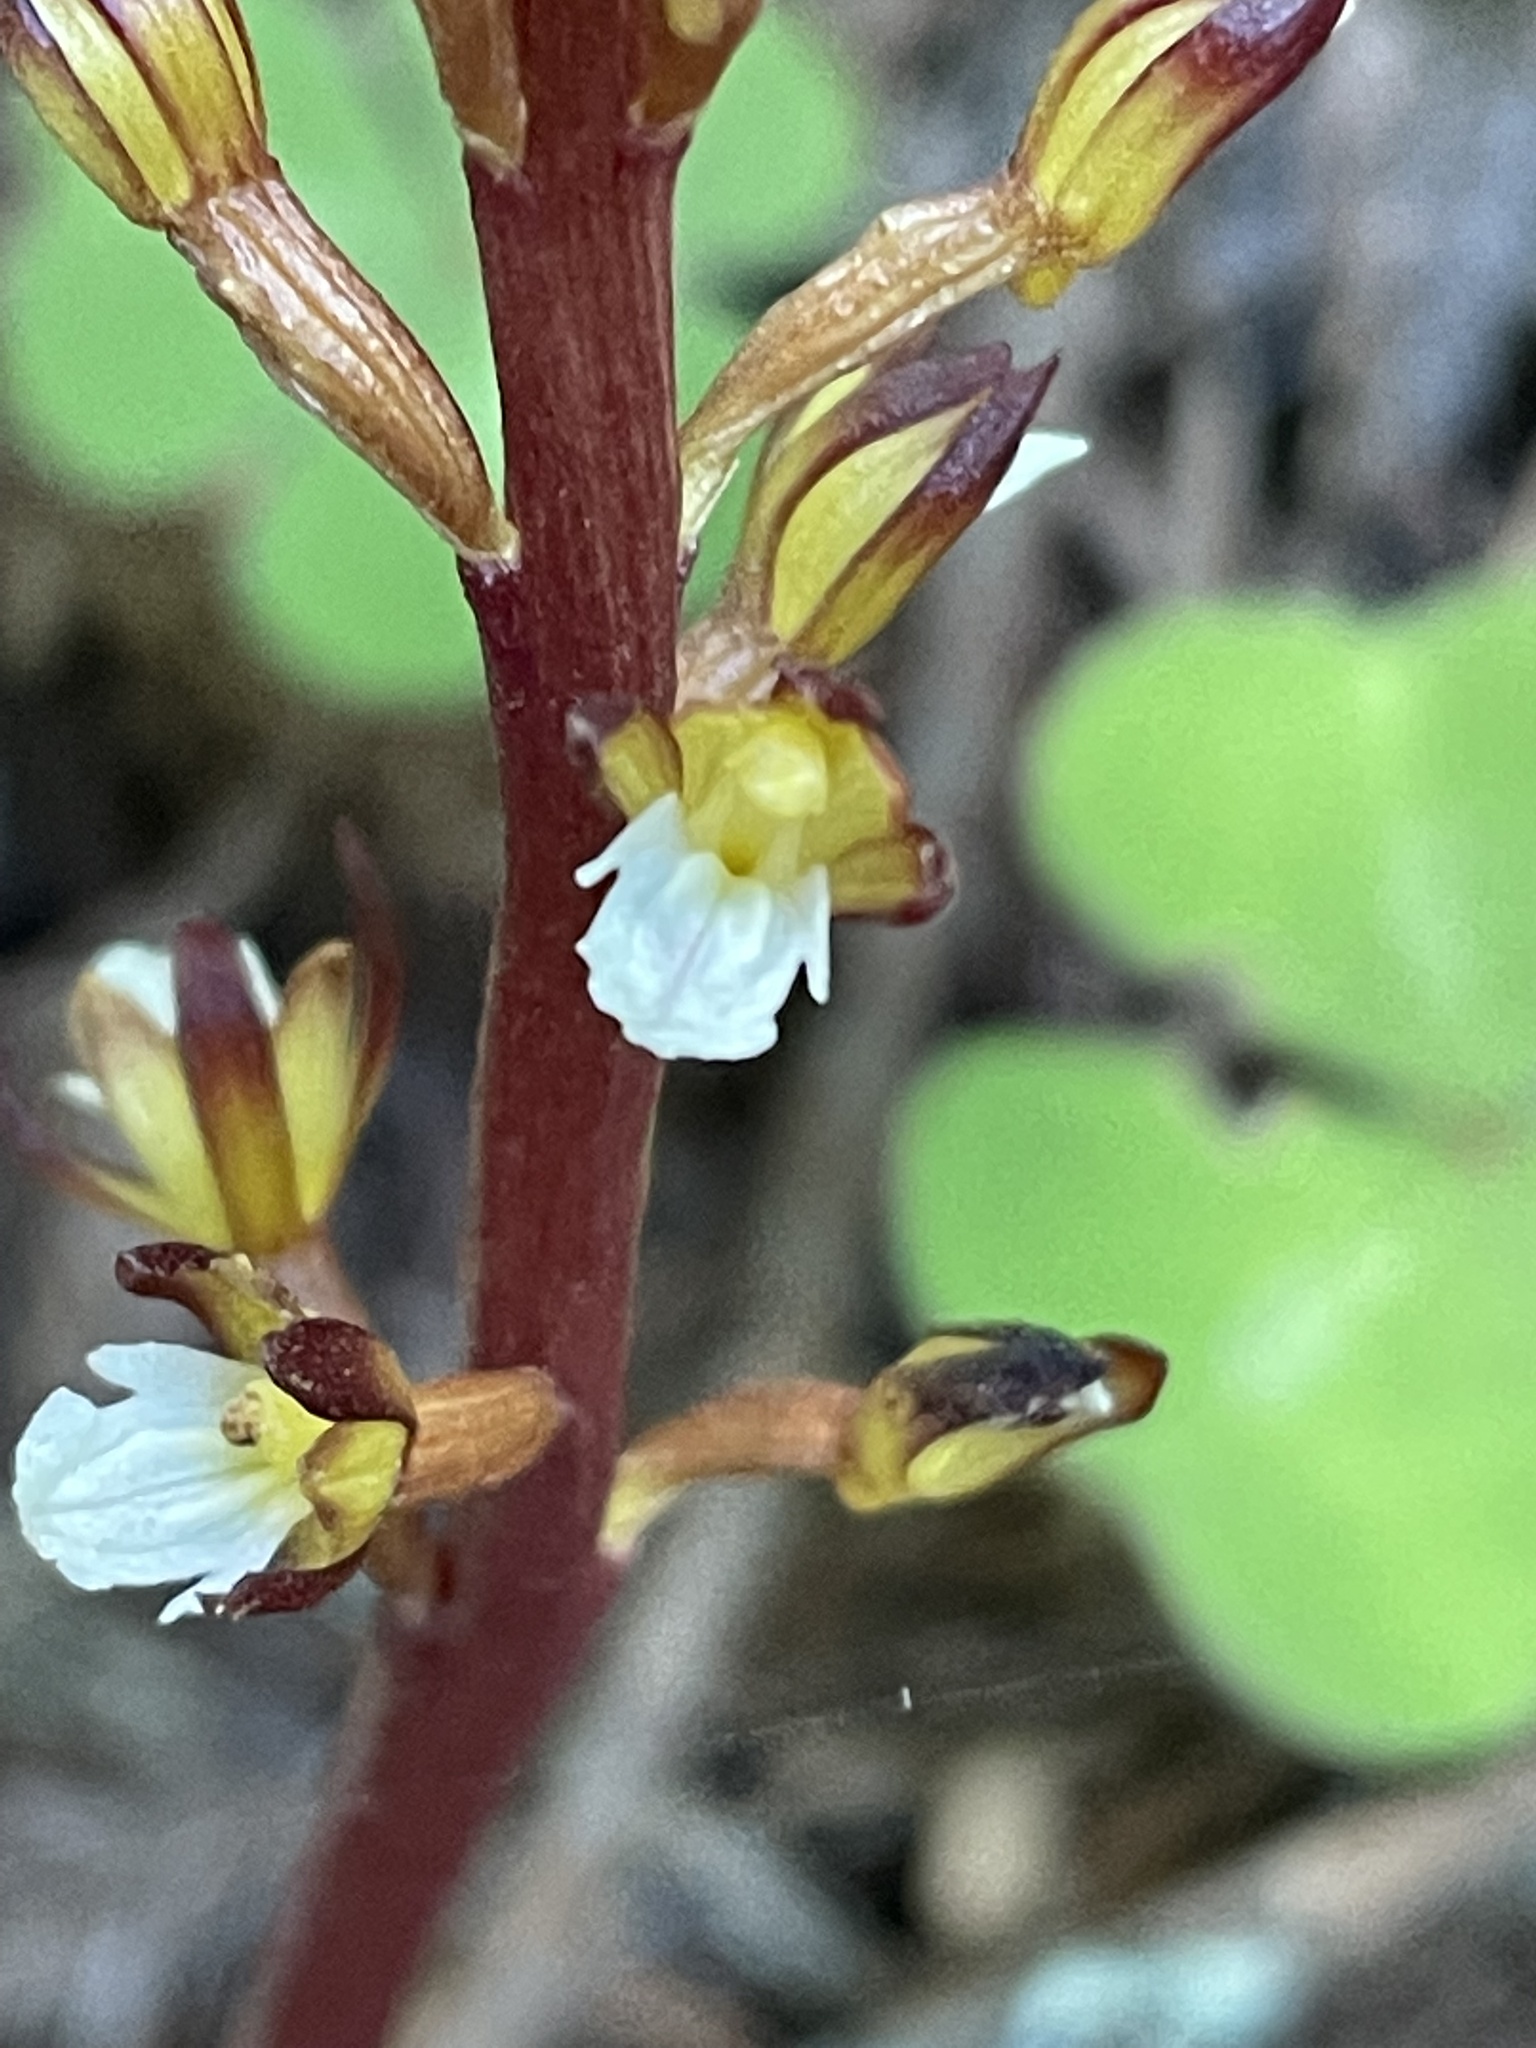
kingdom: Plantae
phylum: Tracheophyta
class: Liliopsida
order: Asparagales
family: Orchidaceae
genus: Corallorhiza
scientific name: Corallorhiza maculata
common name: Spotted coralroot
